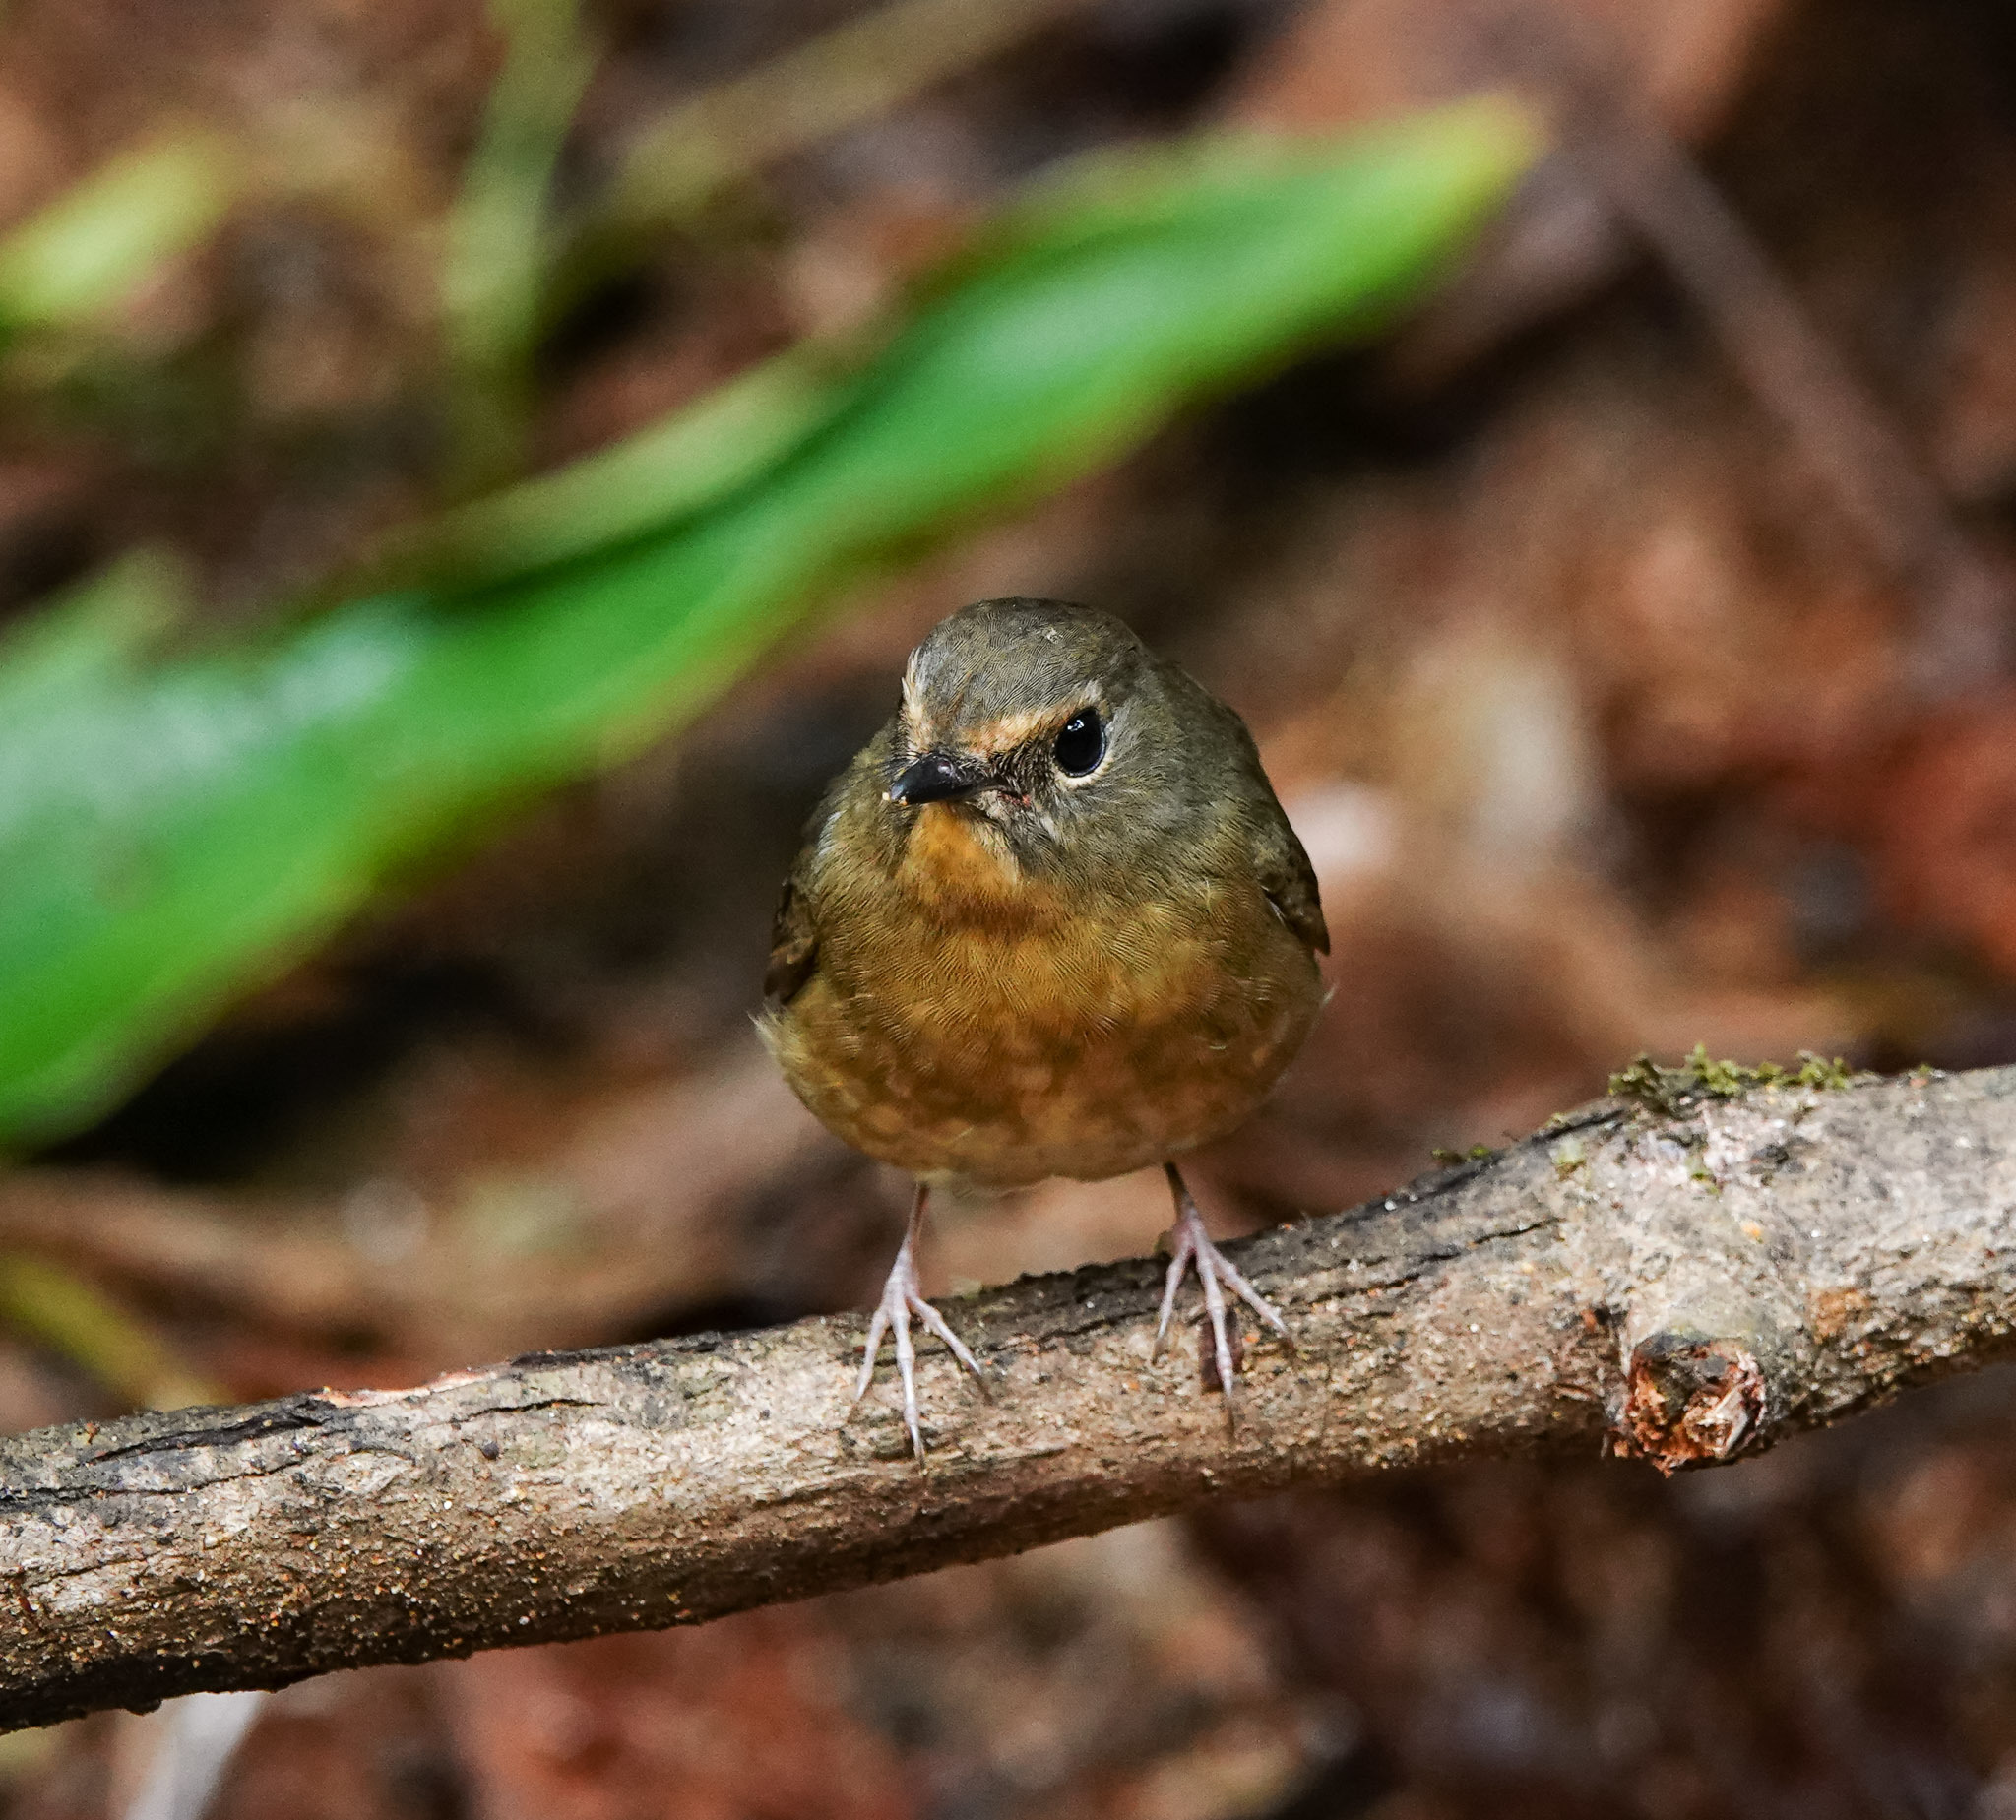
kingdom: Animalia
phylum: Chordata
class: Aves
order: Passeriformes
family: Muscicapidae
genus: Ficedula
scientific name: Ficedula hyperythra
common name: Snowy-browed flycatcher
